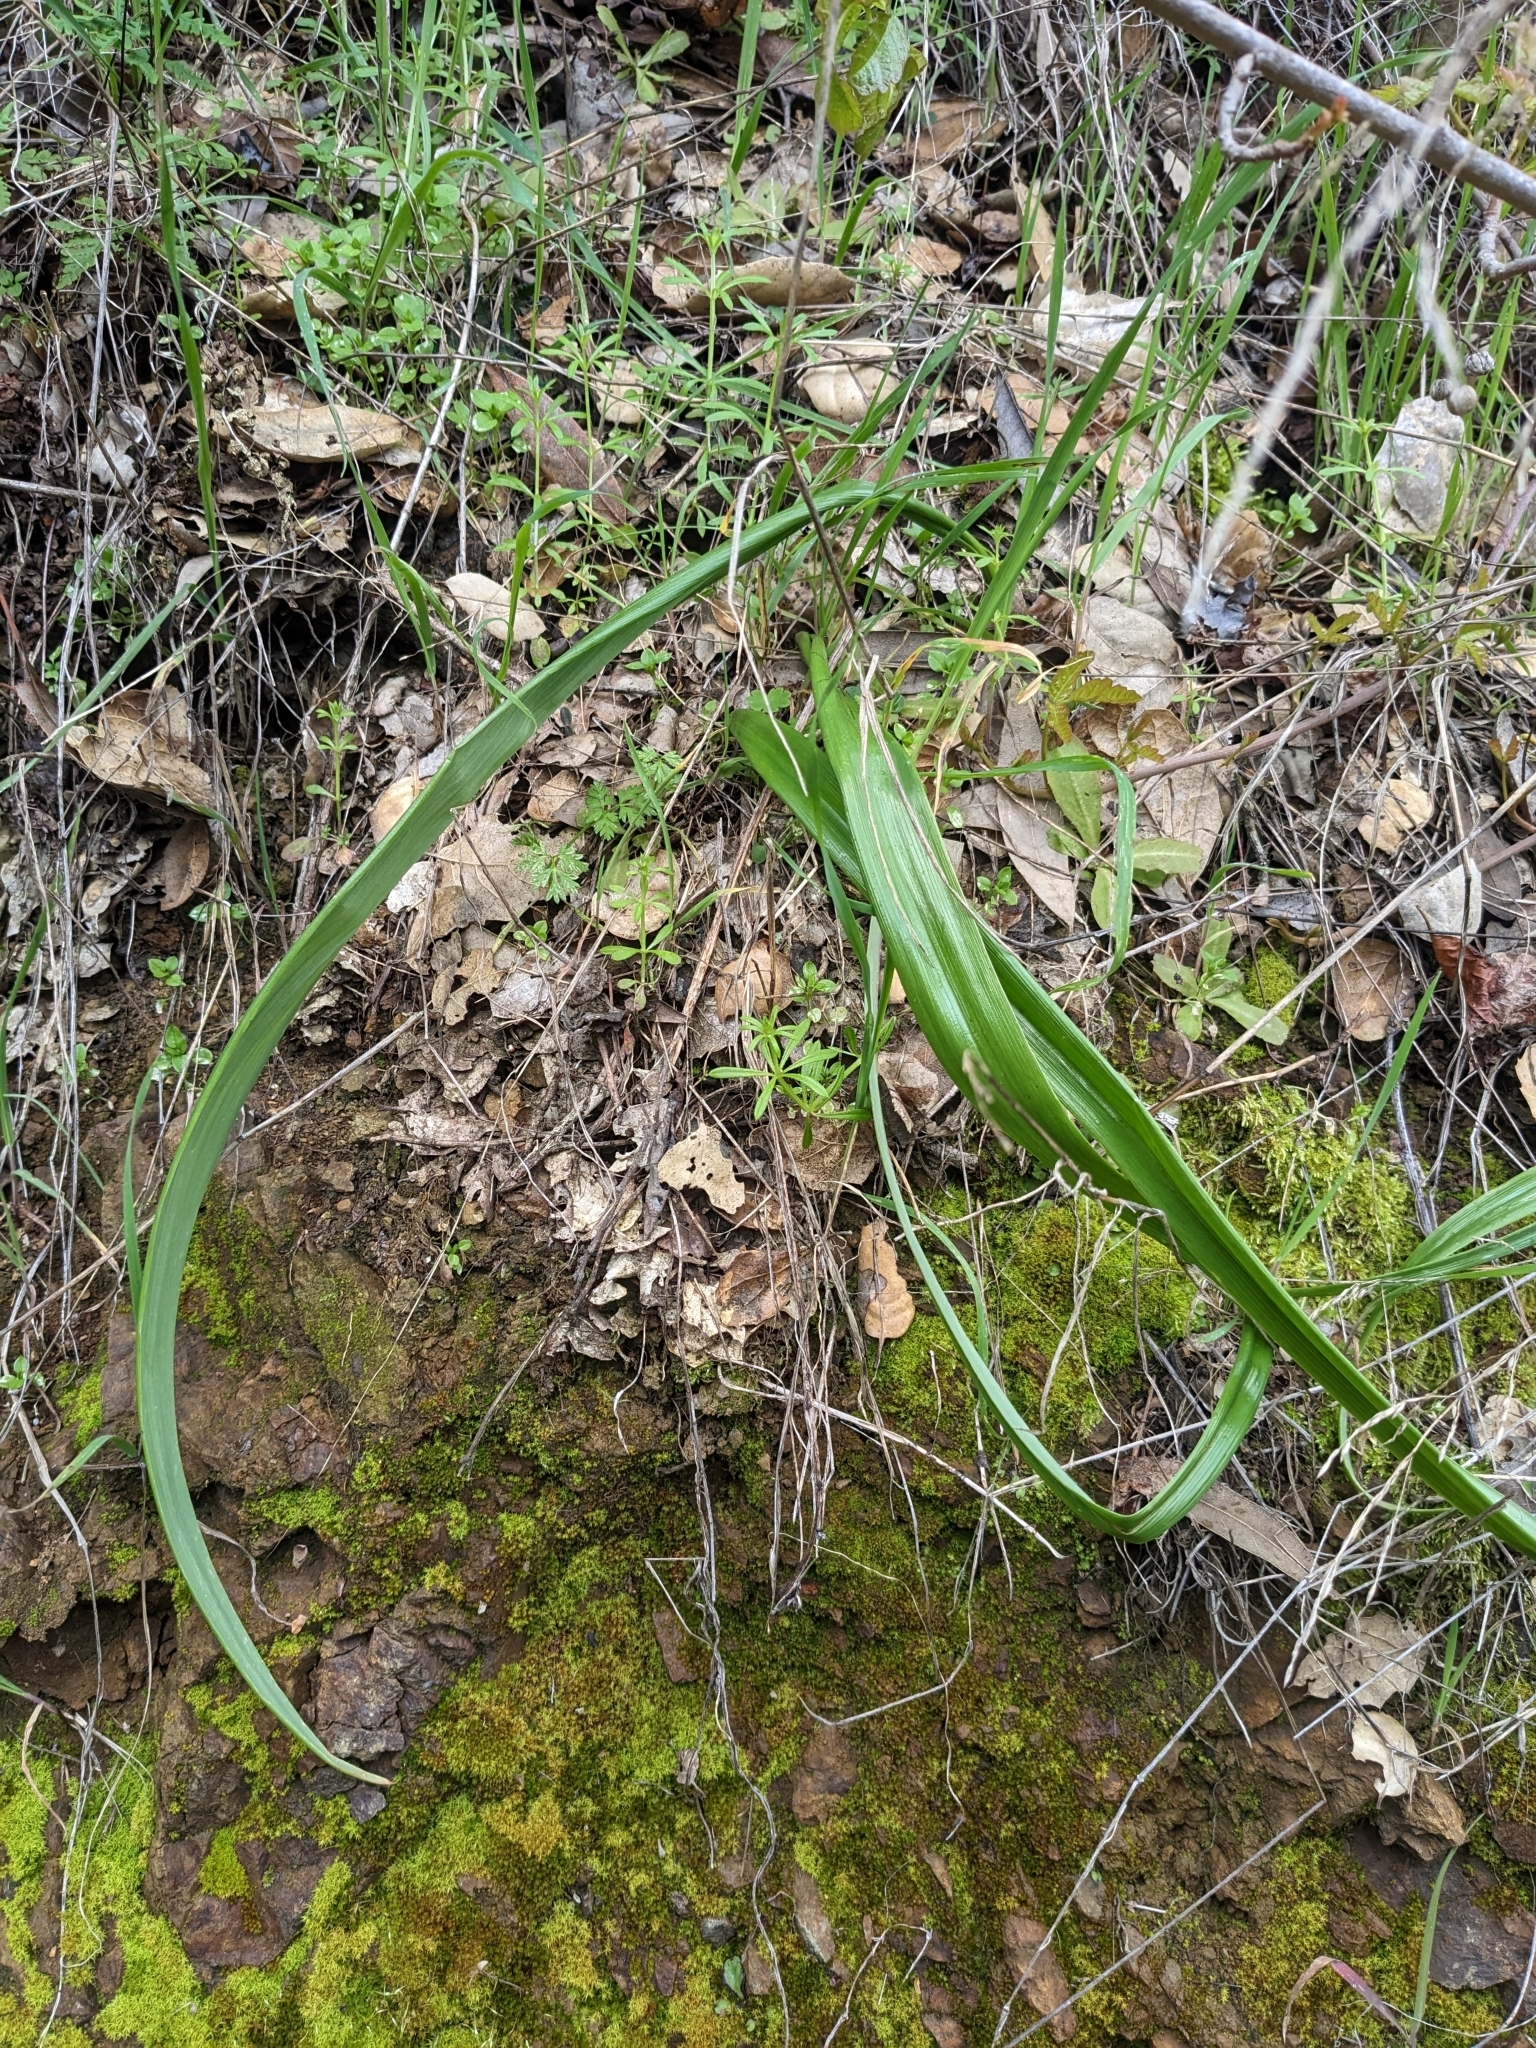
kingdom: Plantae
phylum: Tracheophyta
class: Liliopsida
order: Liliales
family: Liliaceae
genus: Calochortus
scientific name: Calochortus albus
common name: Fairy-lantern
